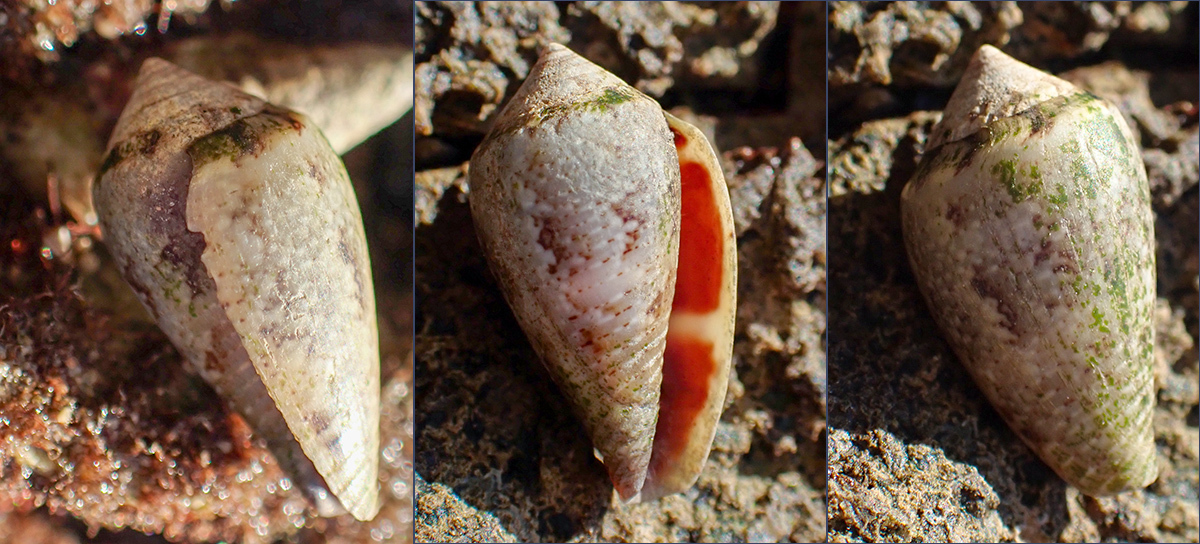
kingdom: Animalia
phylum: Mollusca
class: Gastropoda
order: Neogastropoda
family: Conidae
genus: Conus
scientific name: Conus ventricosus
